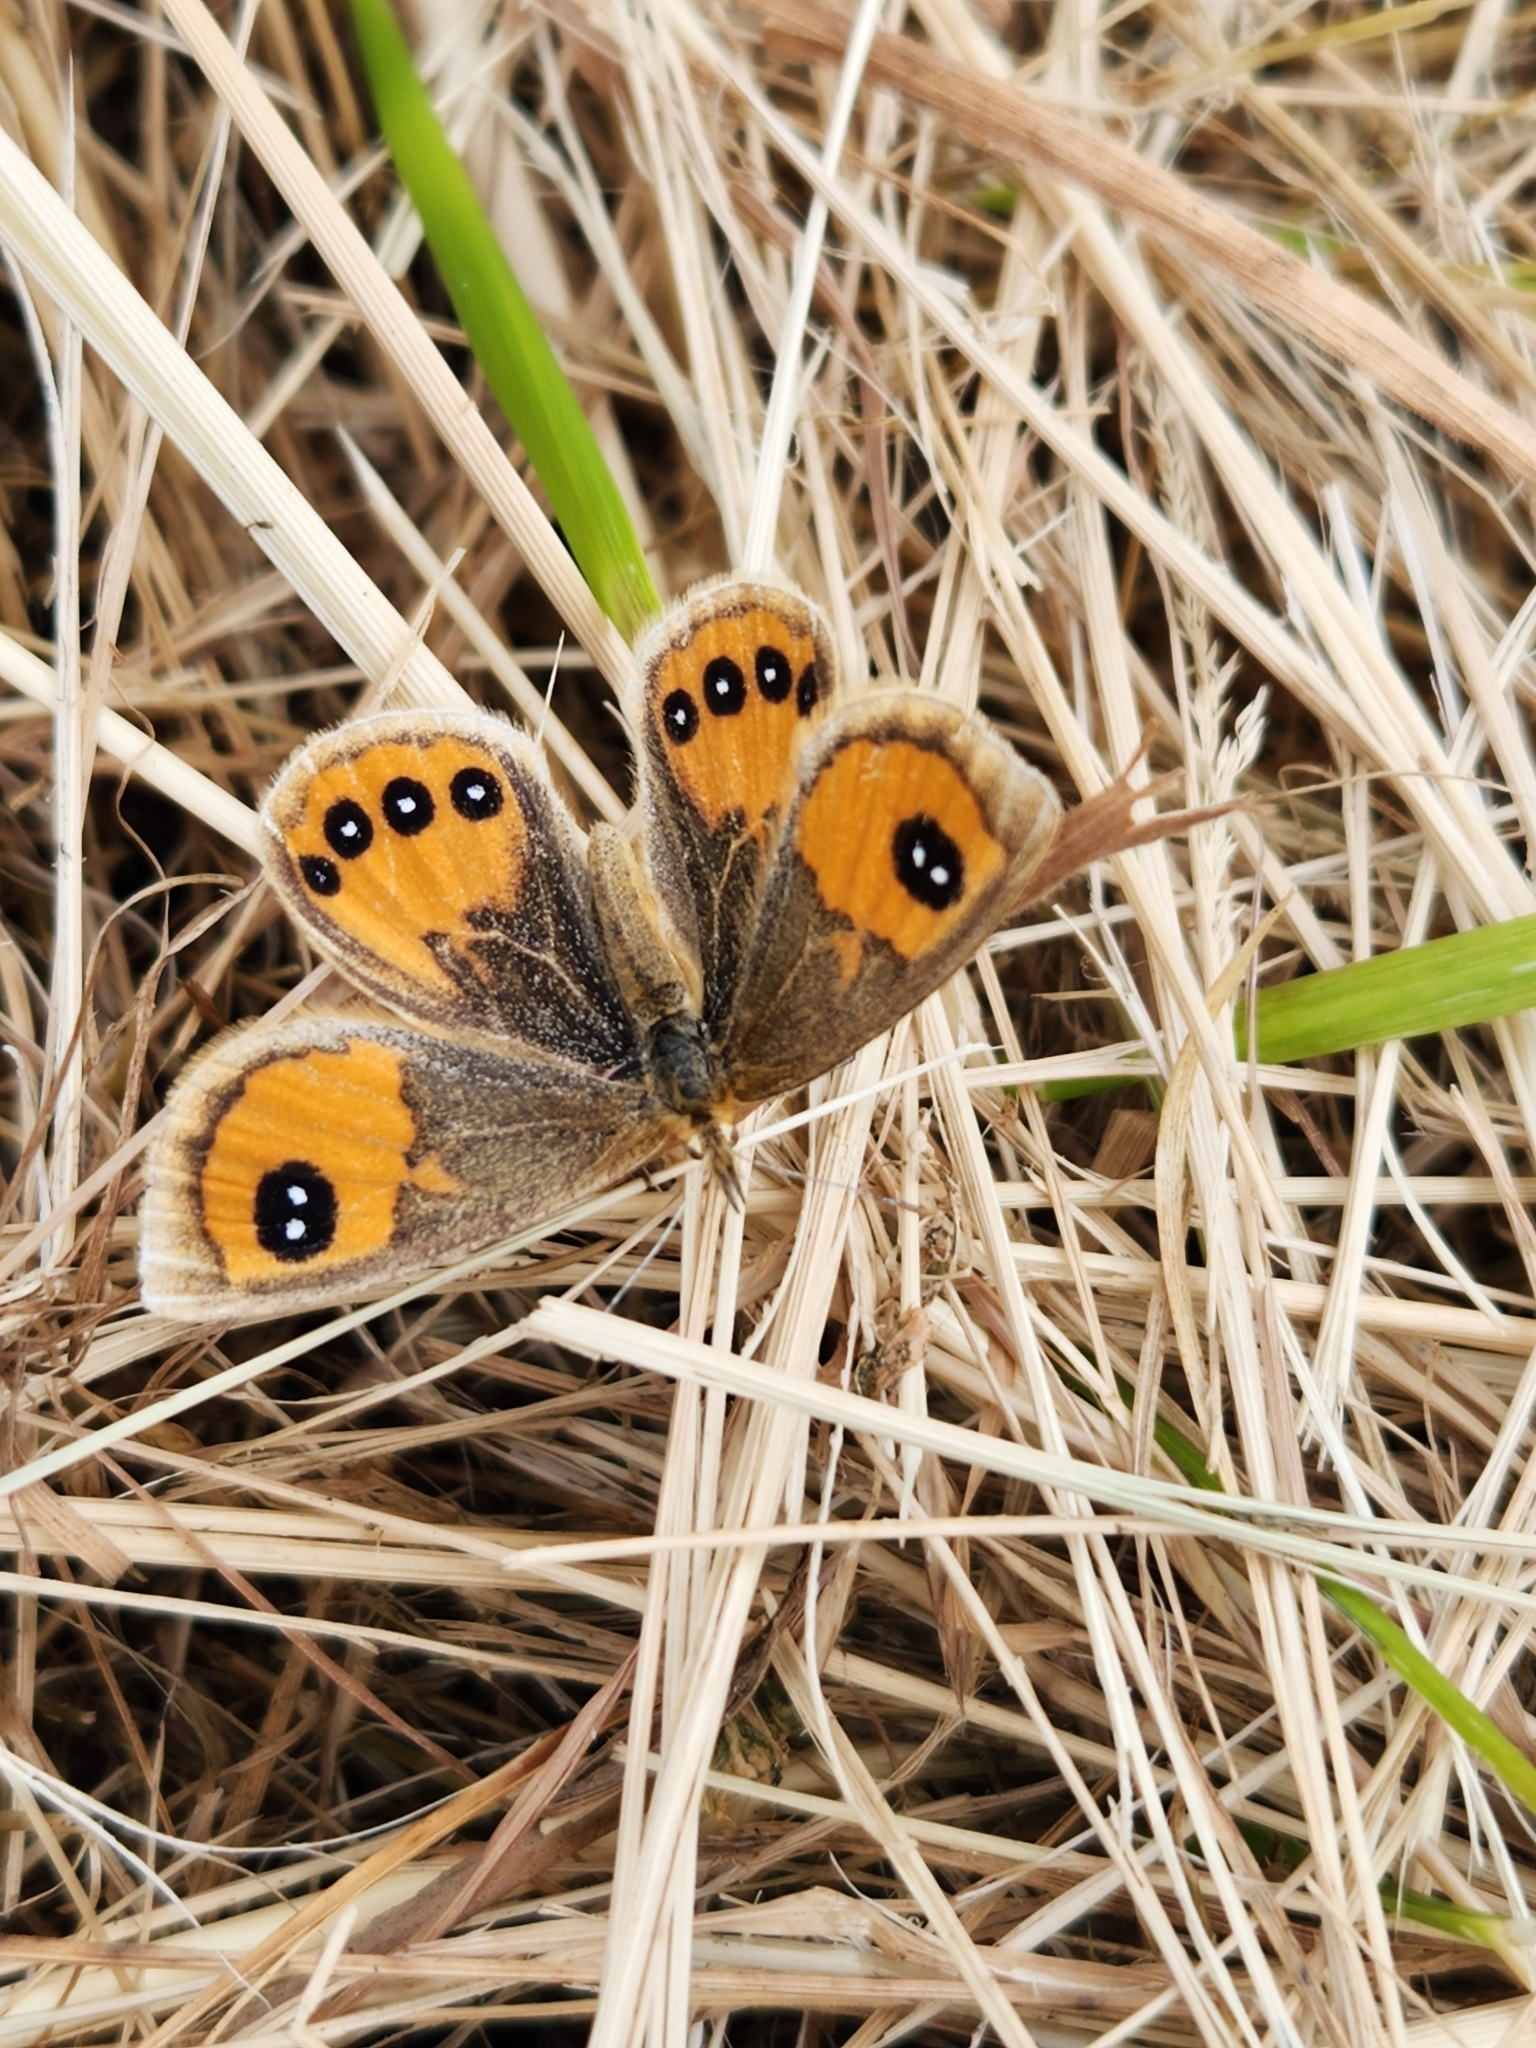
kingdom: Animalia
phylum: Arthropoda
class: Insecta
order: Lepidoptera
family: Nymphalidae
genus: Argyrophenga
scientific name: Argyrophenga antipodum
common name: Common tussock butterfly
